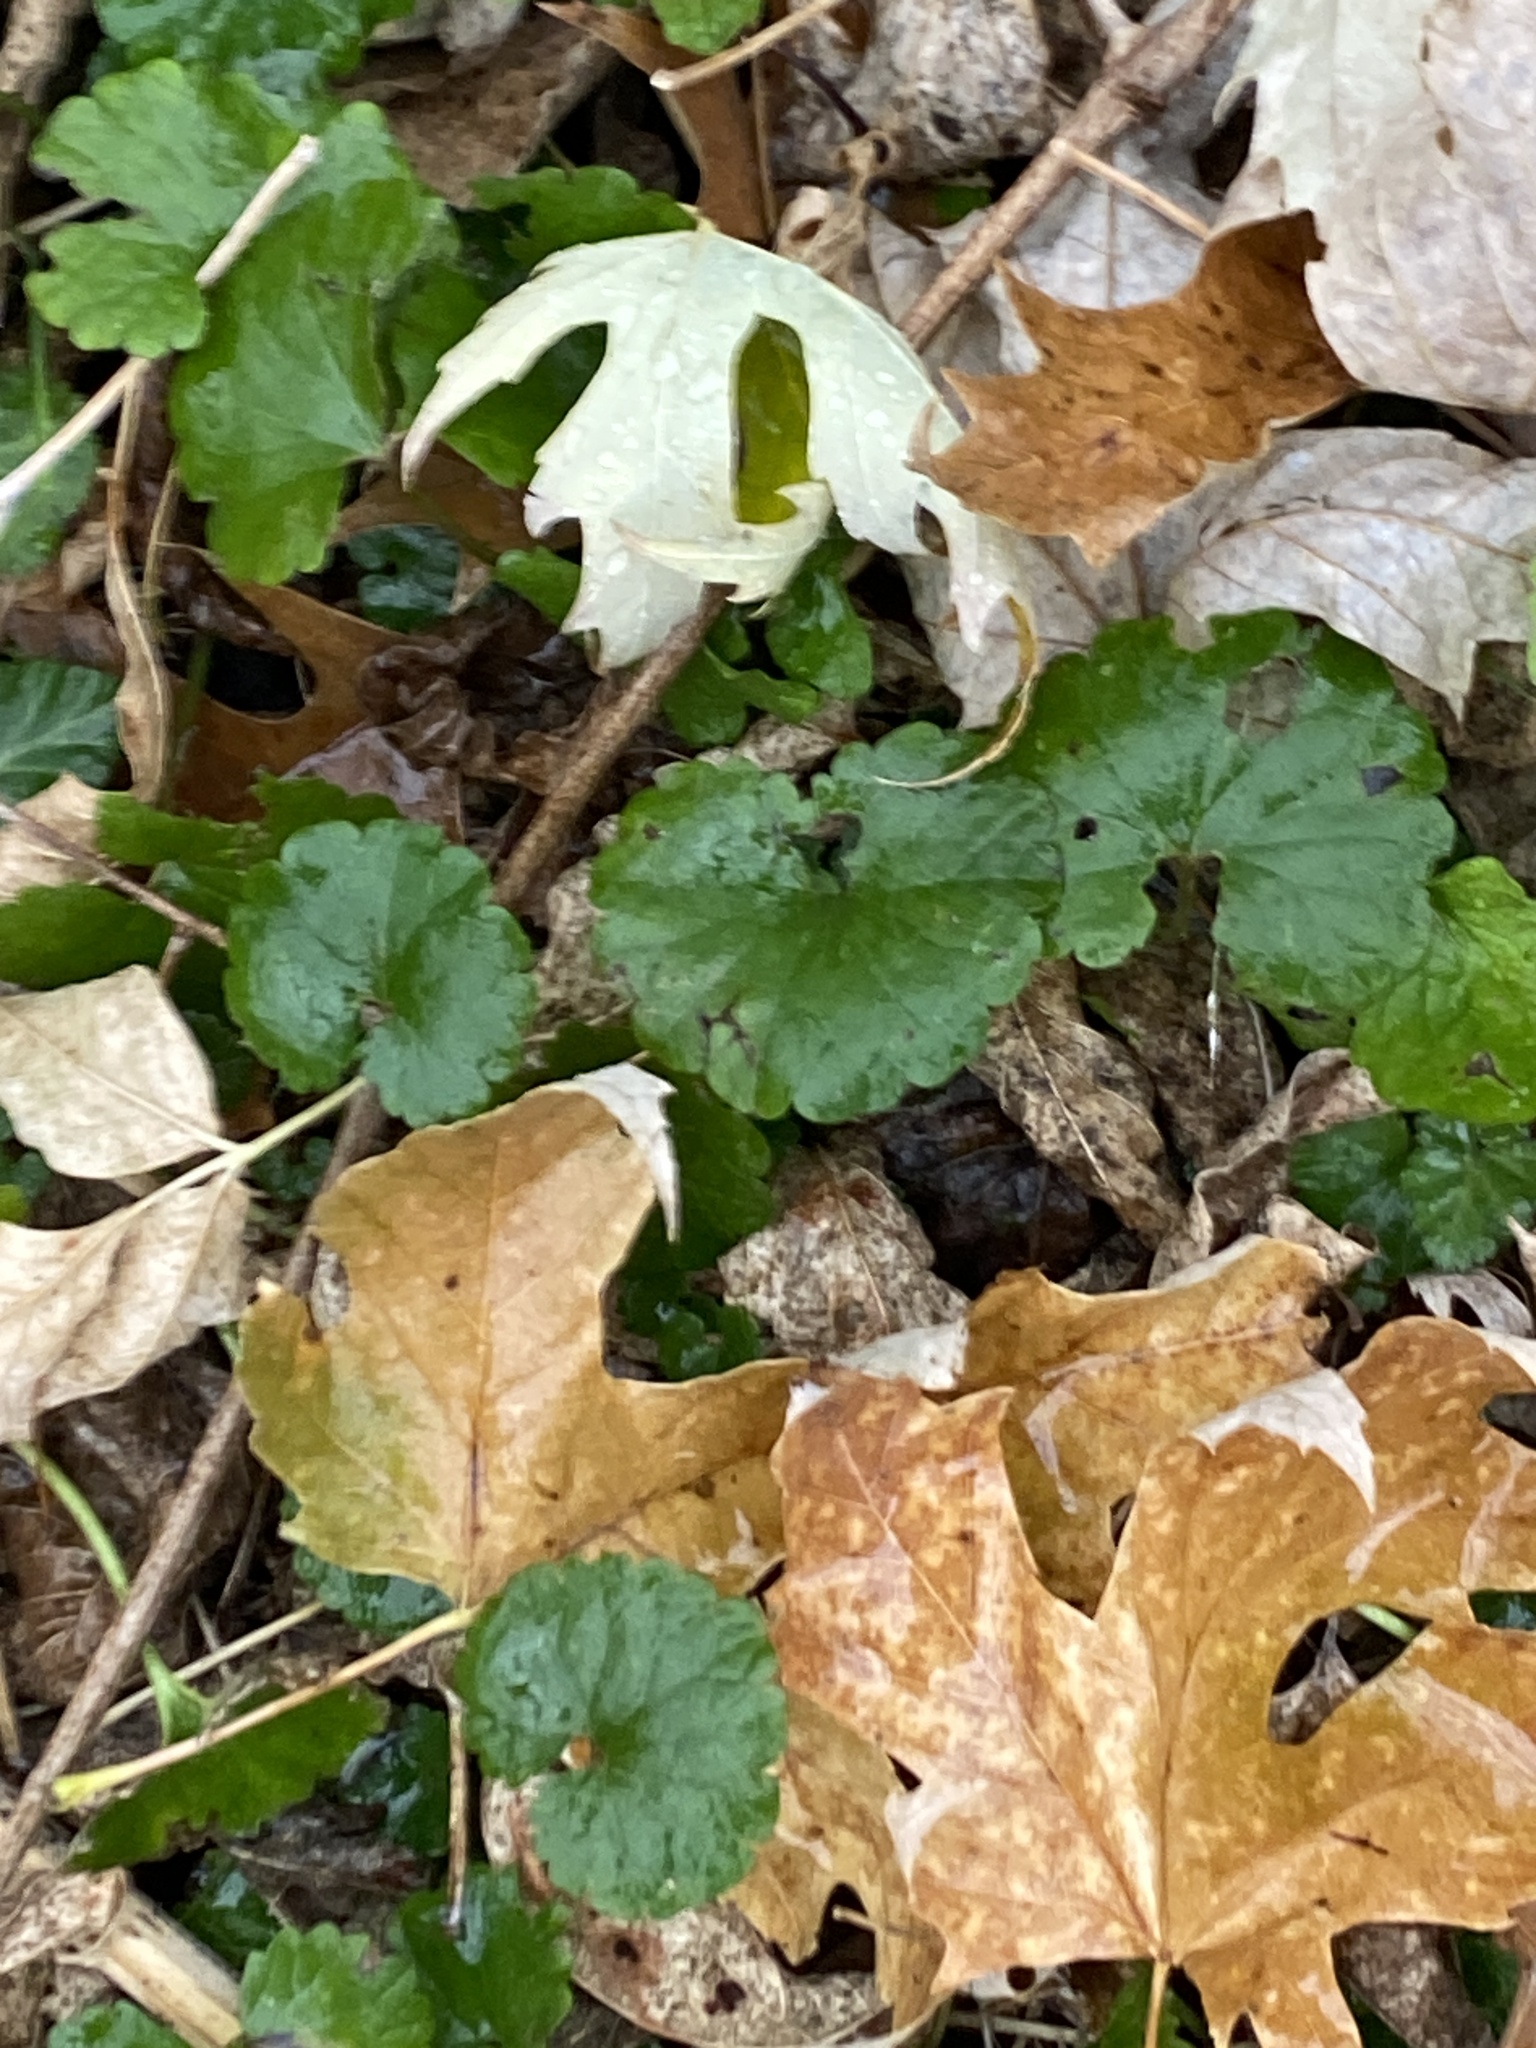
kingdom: Plantae
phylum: Tracheophyta
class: Magnoliopsida
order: Lamiales
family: Lamiaceae
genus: Glechoma
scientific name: Glechoma hederacea
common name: Ground ivy
